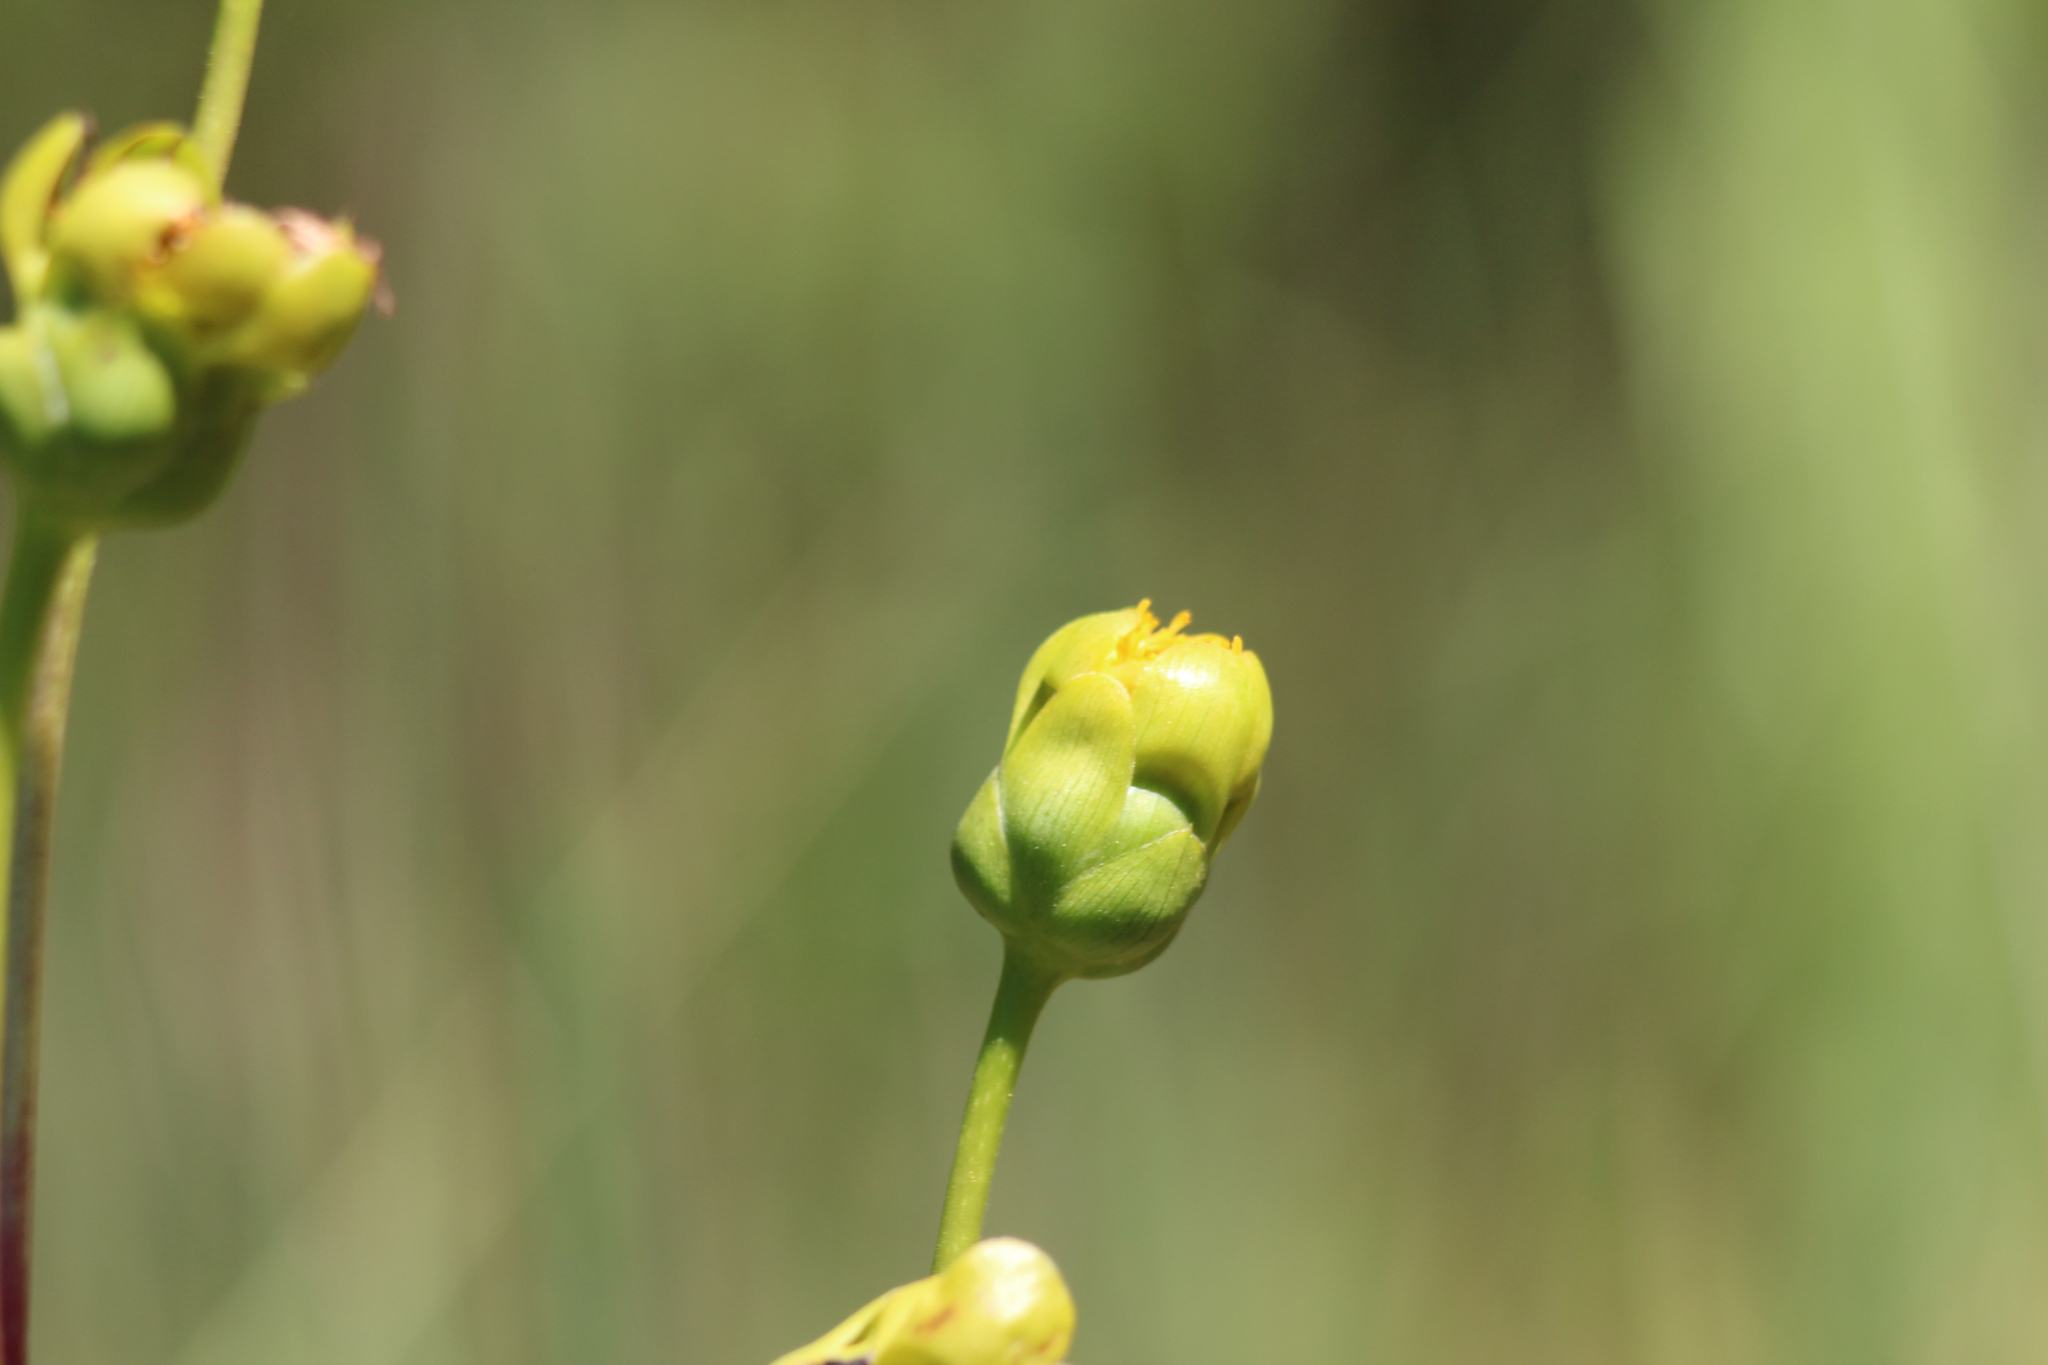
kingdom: Plantae
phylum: Tracheophyta
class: Magnoliopsida
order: Asterales
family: Asteraceae
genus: Silphium
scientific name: Silphium terebinthinaceum
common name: Basal-leaf rosinweed
